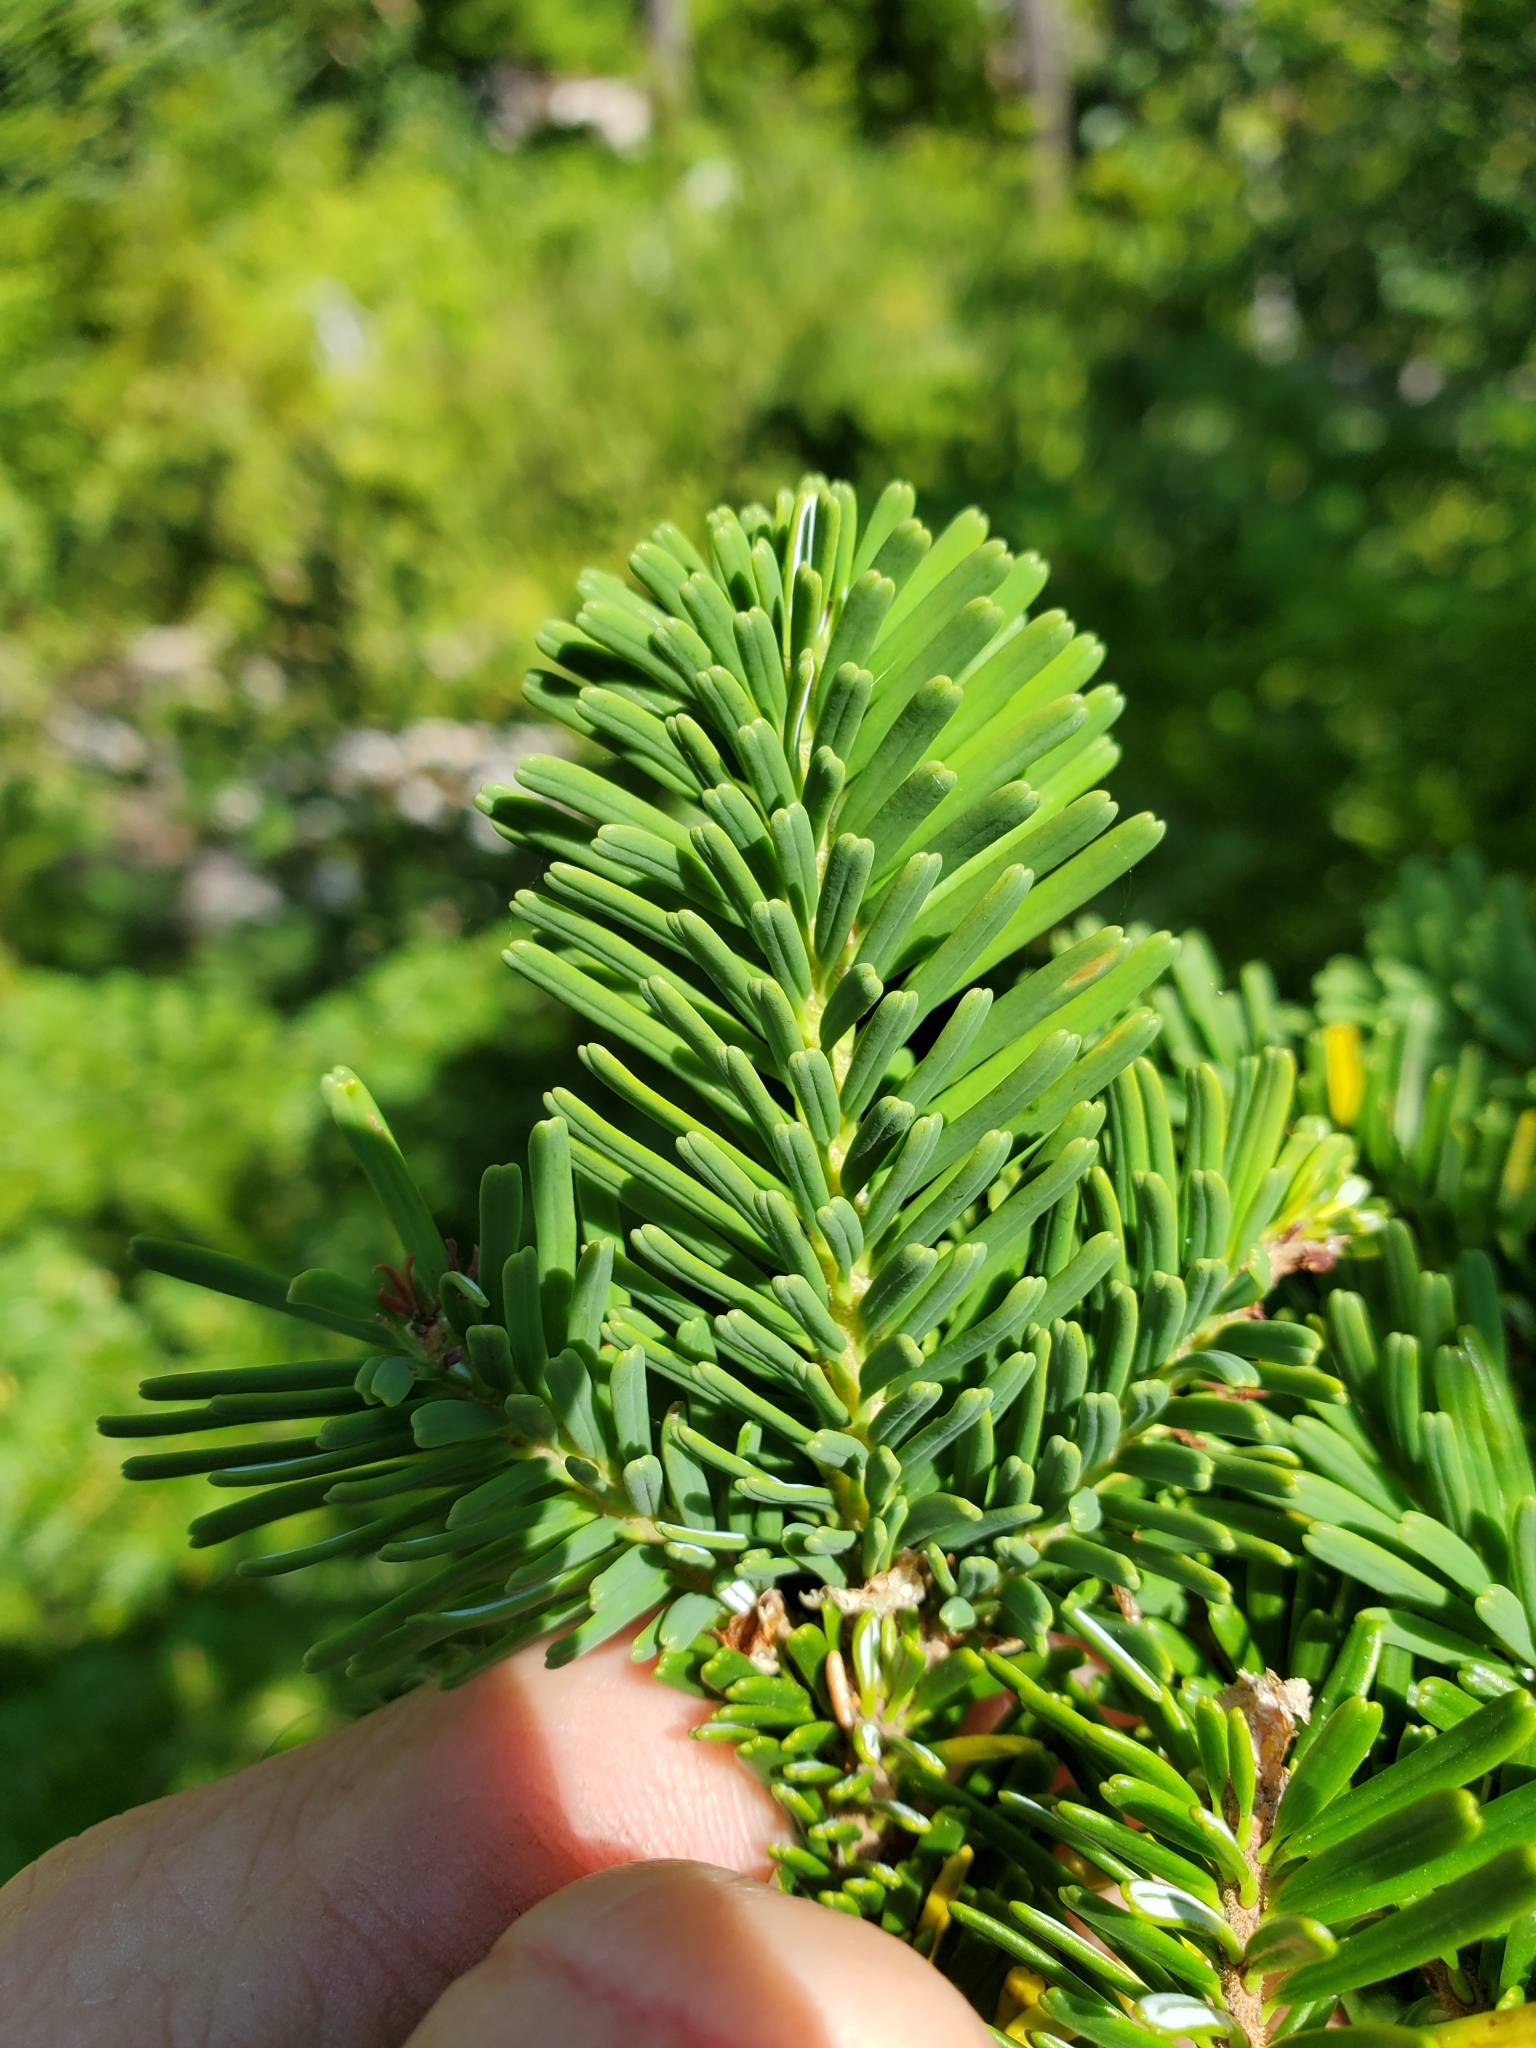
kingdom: Plantae
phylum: Tracheophyta
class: Pinopsida
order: Pinales
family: Pinaceae
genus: Abies
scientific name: Abies amabilis
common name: Pacific silver fir
